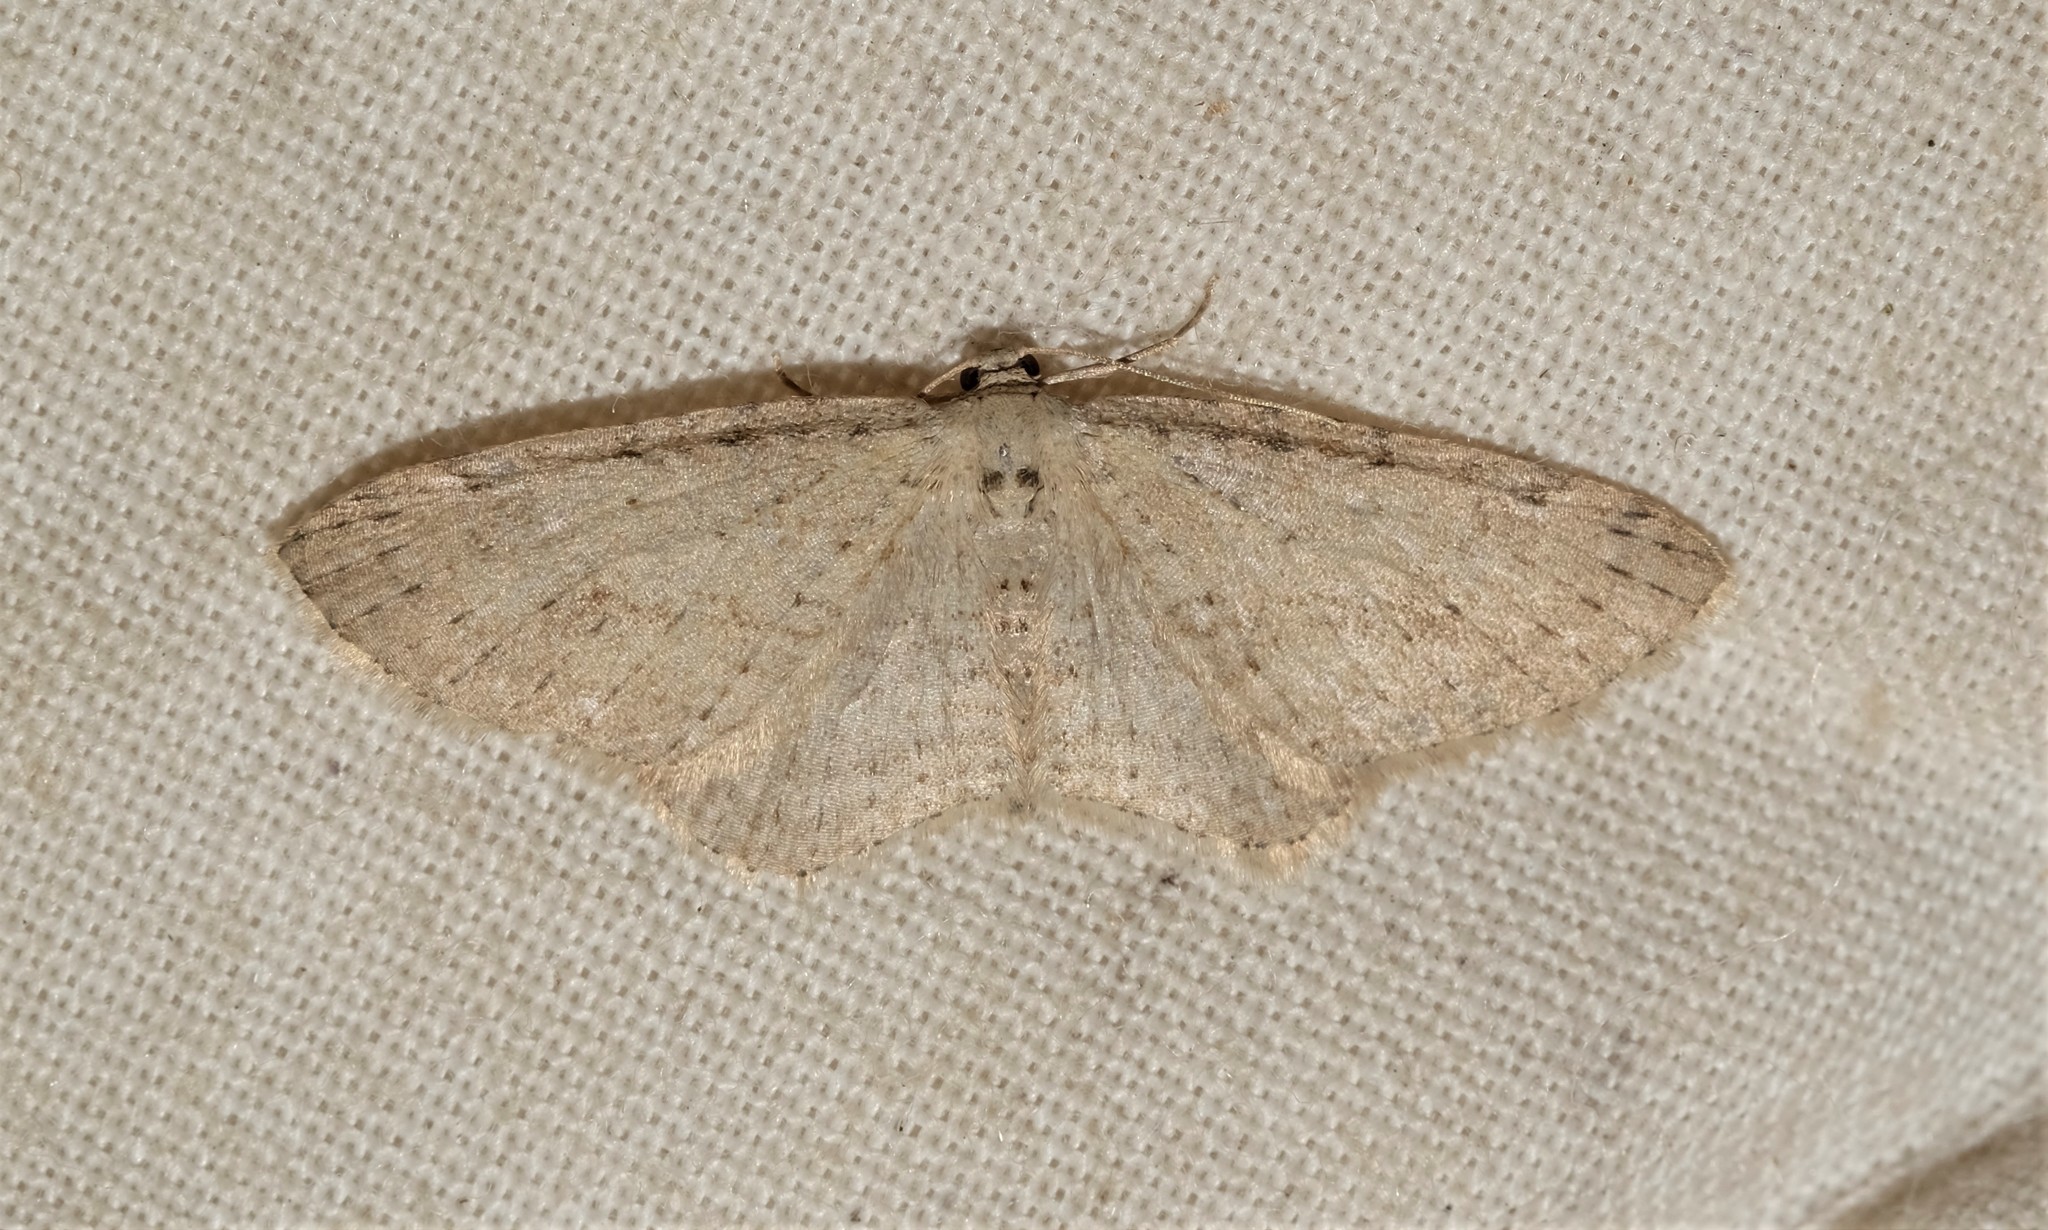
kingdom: Animalia
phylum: Arthropoda
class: Insecta
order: Lepidoptera
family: Geometridae
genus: Poecilasthena
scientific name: Poecilasthena scoliota
